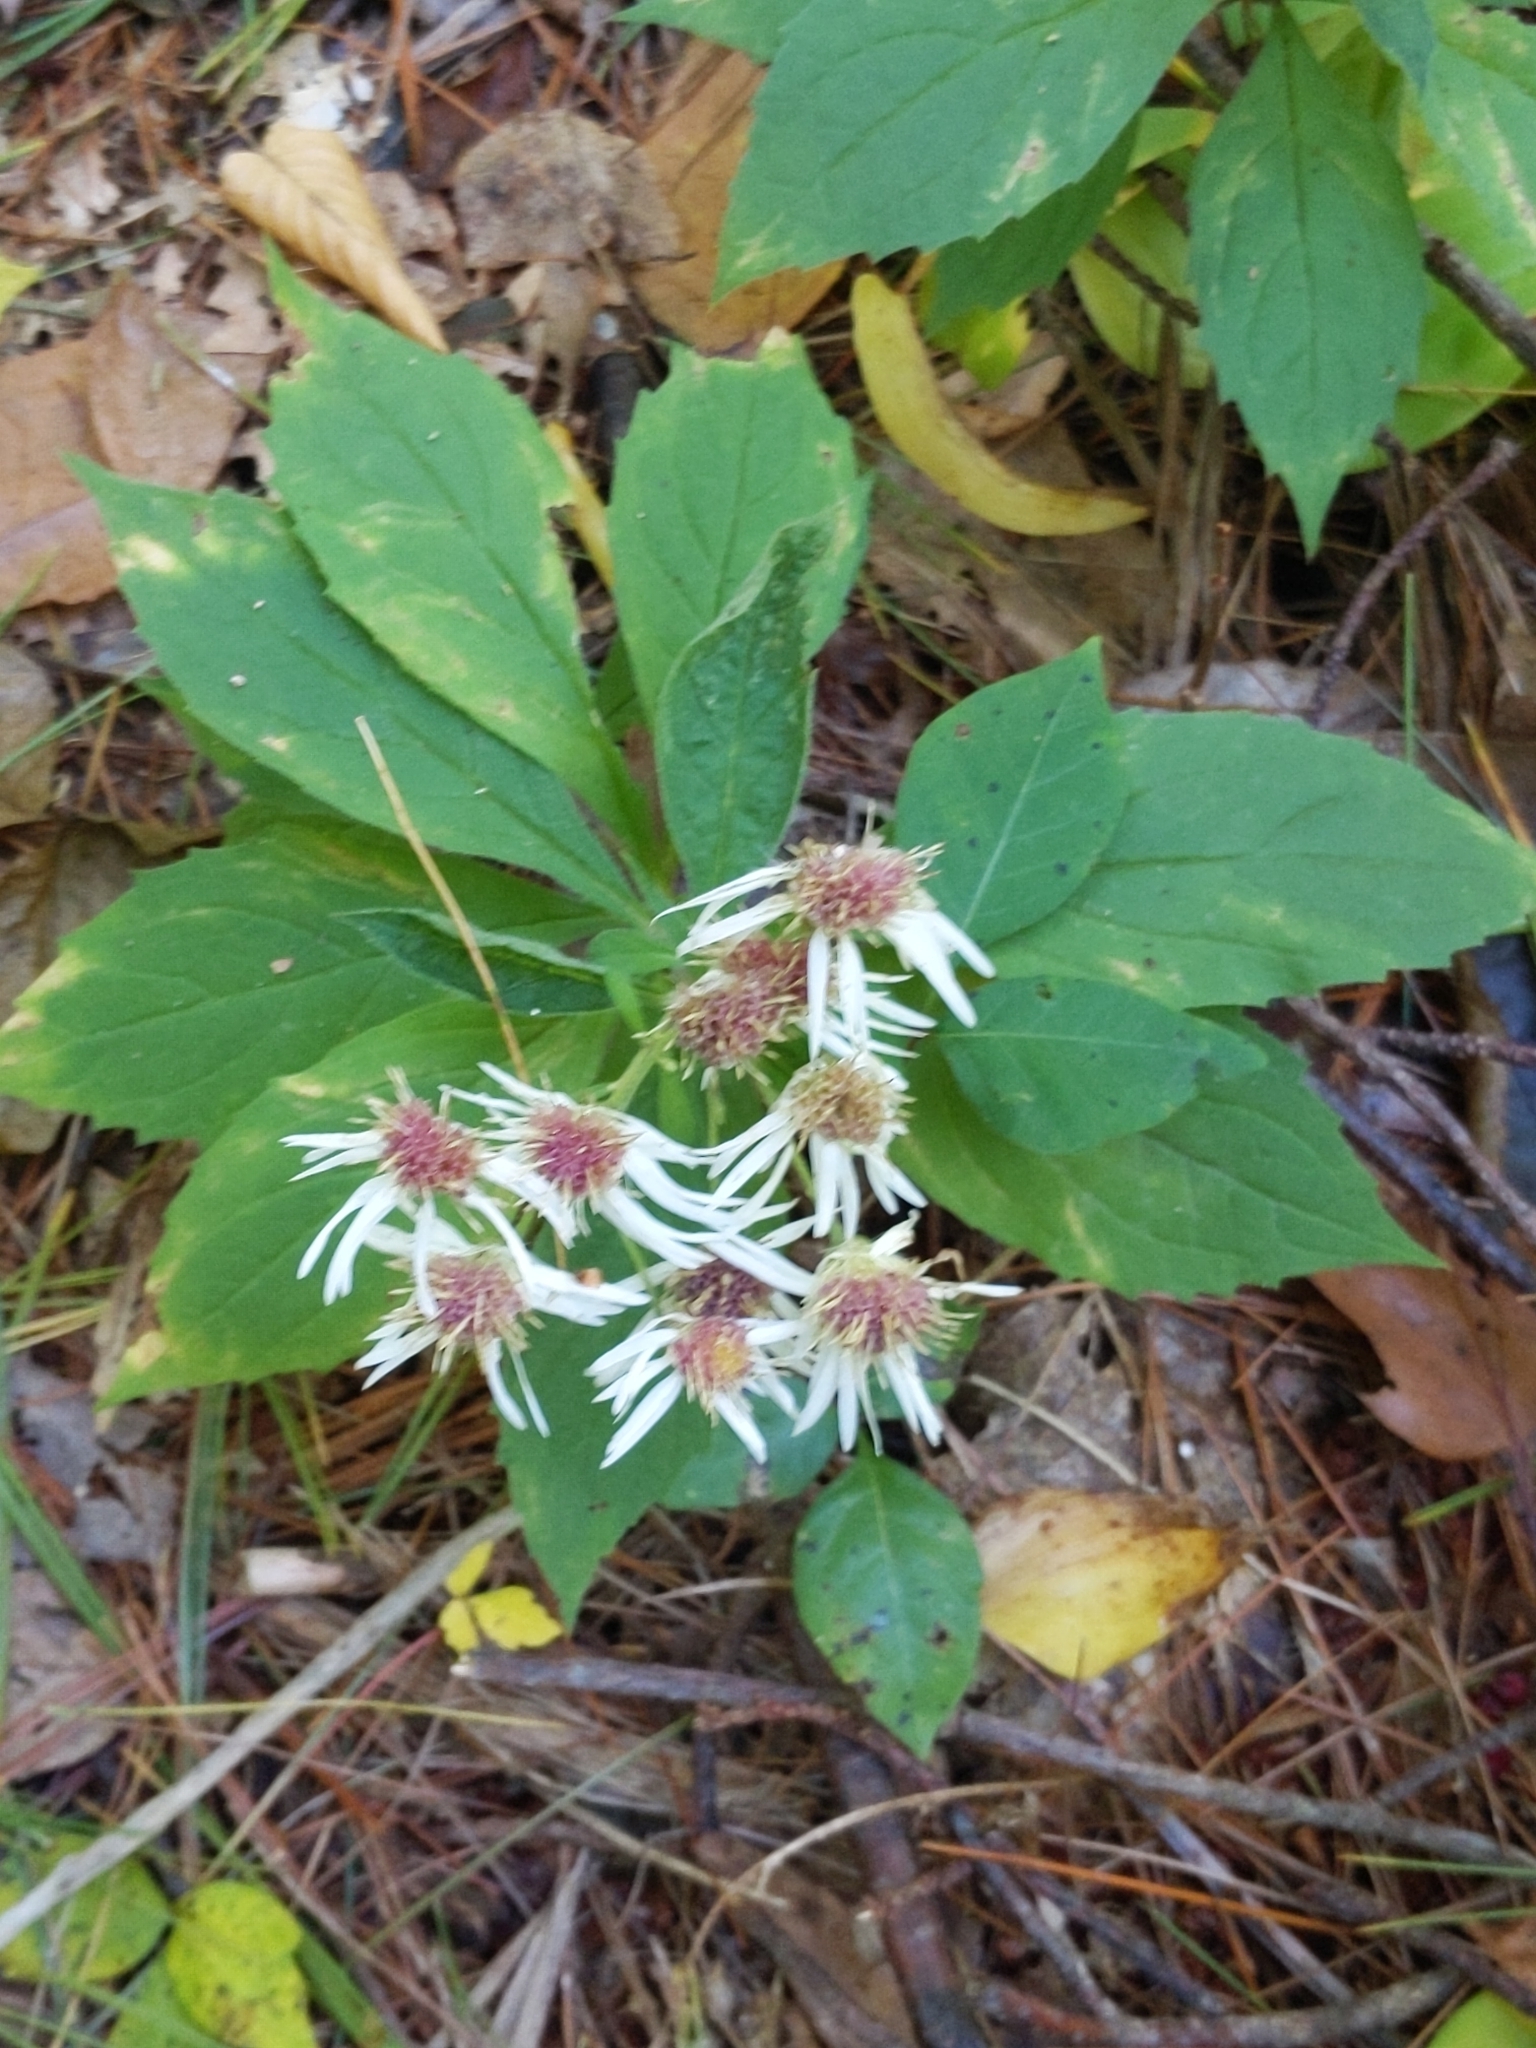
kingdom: Plantae
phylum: Tracheophyta
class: Magnoliopsida
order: Asterales
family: Asteraceae
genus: Oclemena
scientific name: Oclemena acuminata
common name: Mountain aster
